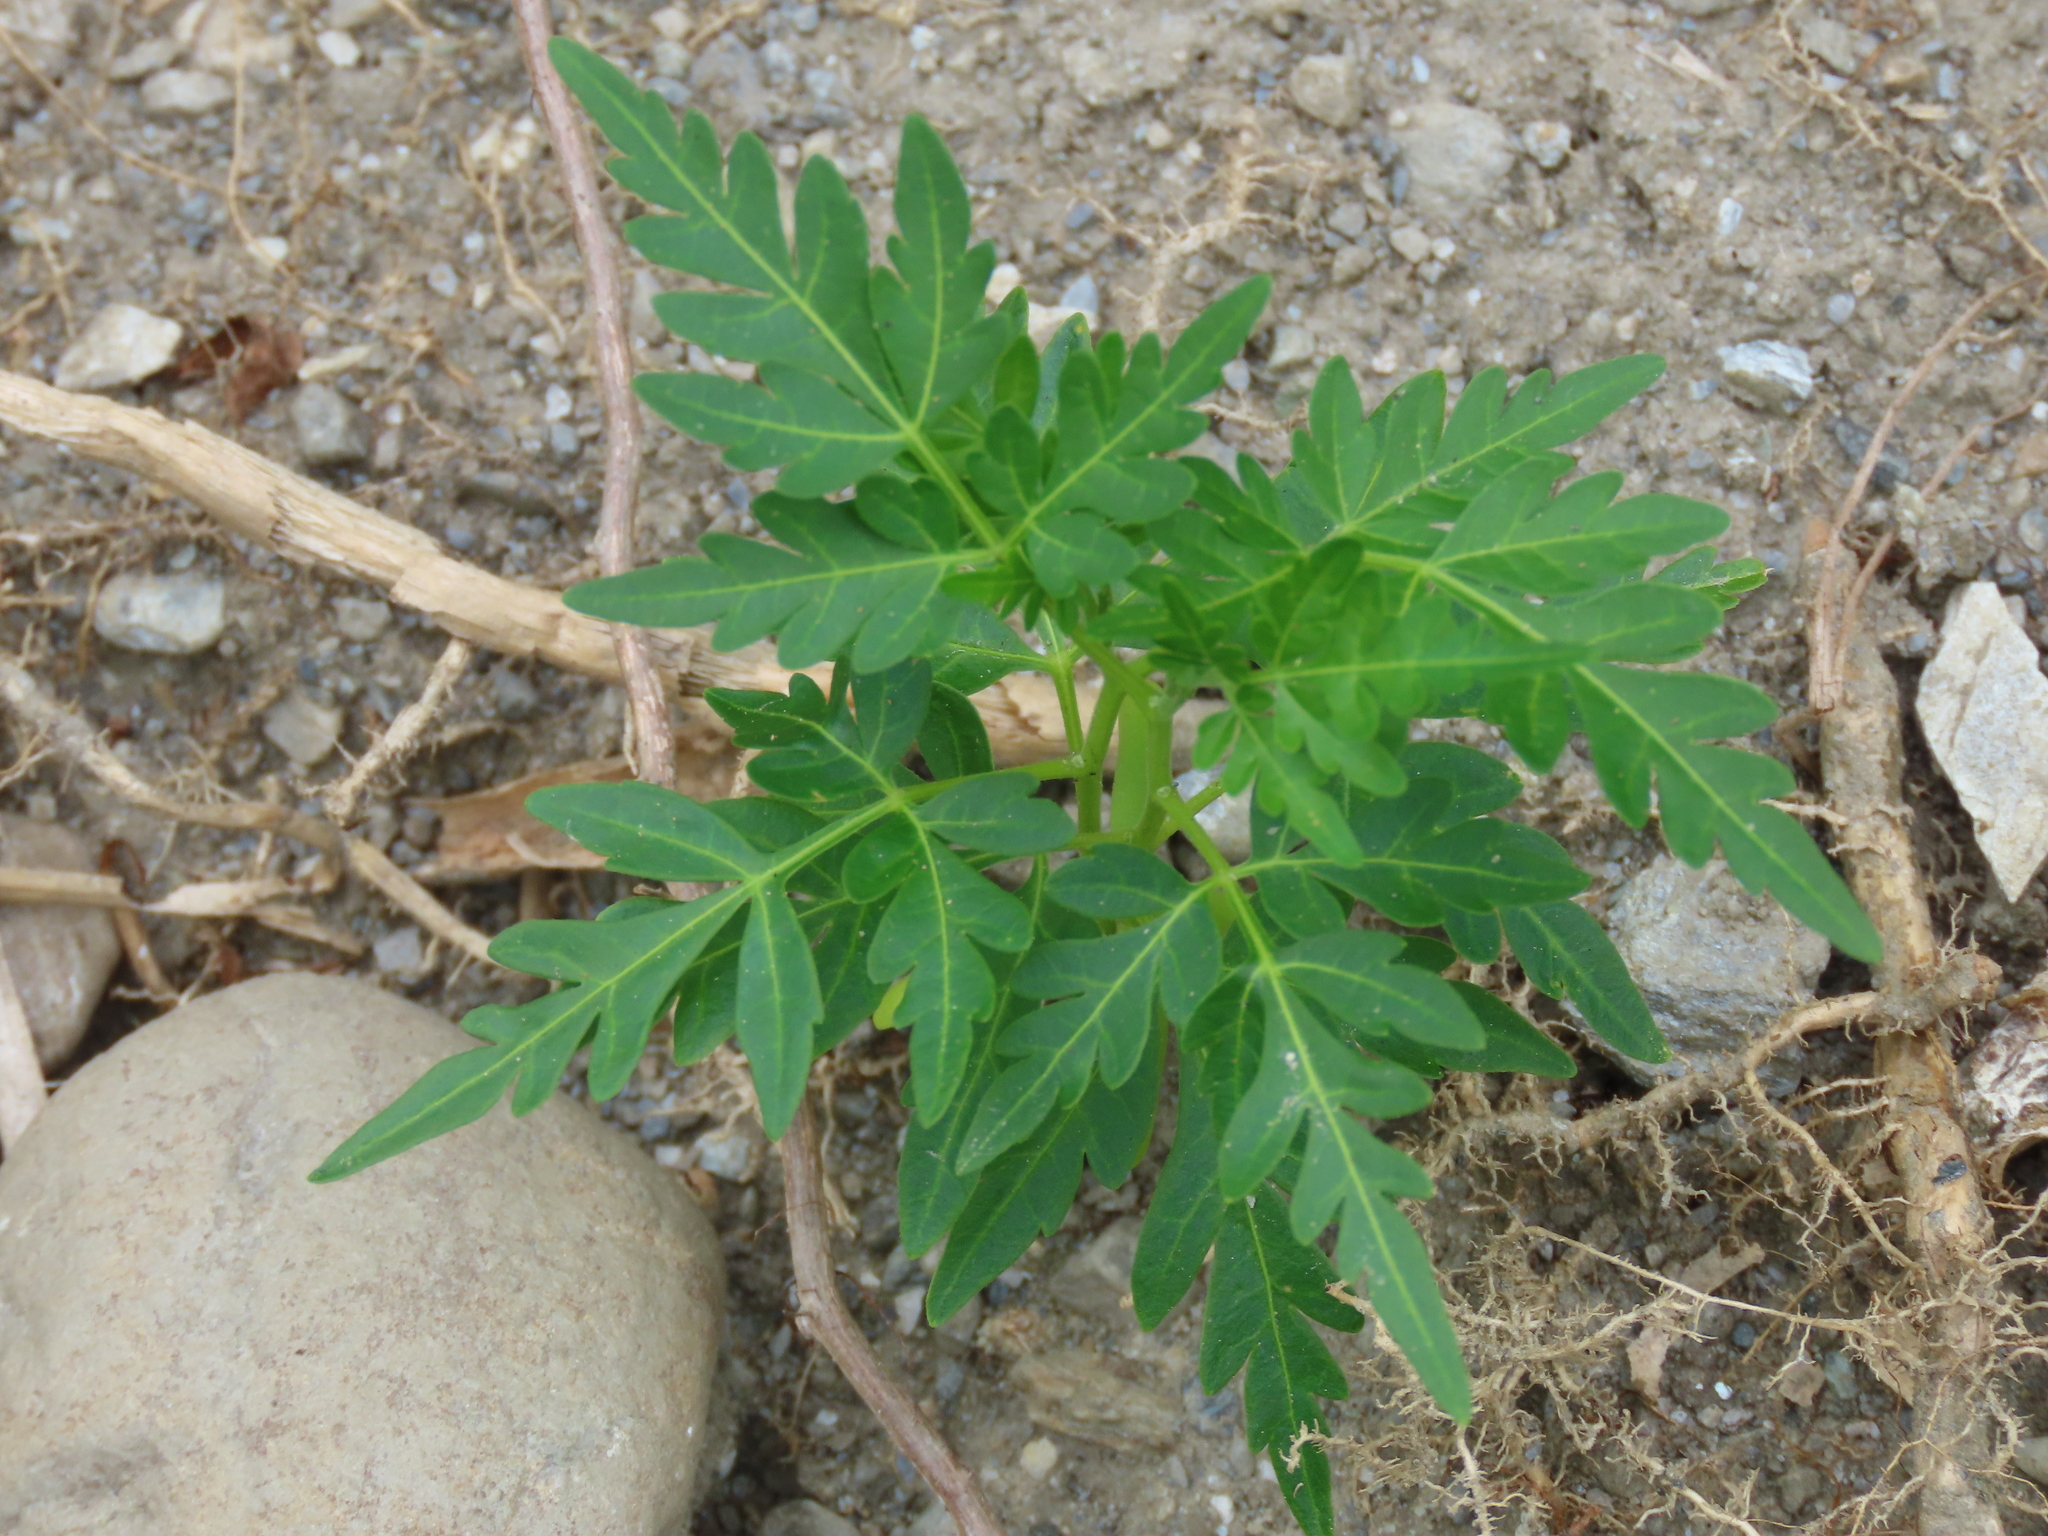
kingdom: Plantae
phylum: Tracheophyta
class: Magnoliopsida
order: Sapindales
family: Meliaceae
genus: Melia
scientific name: Melia azedarach
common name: Chinaberrytree
